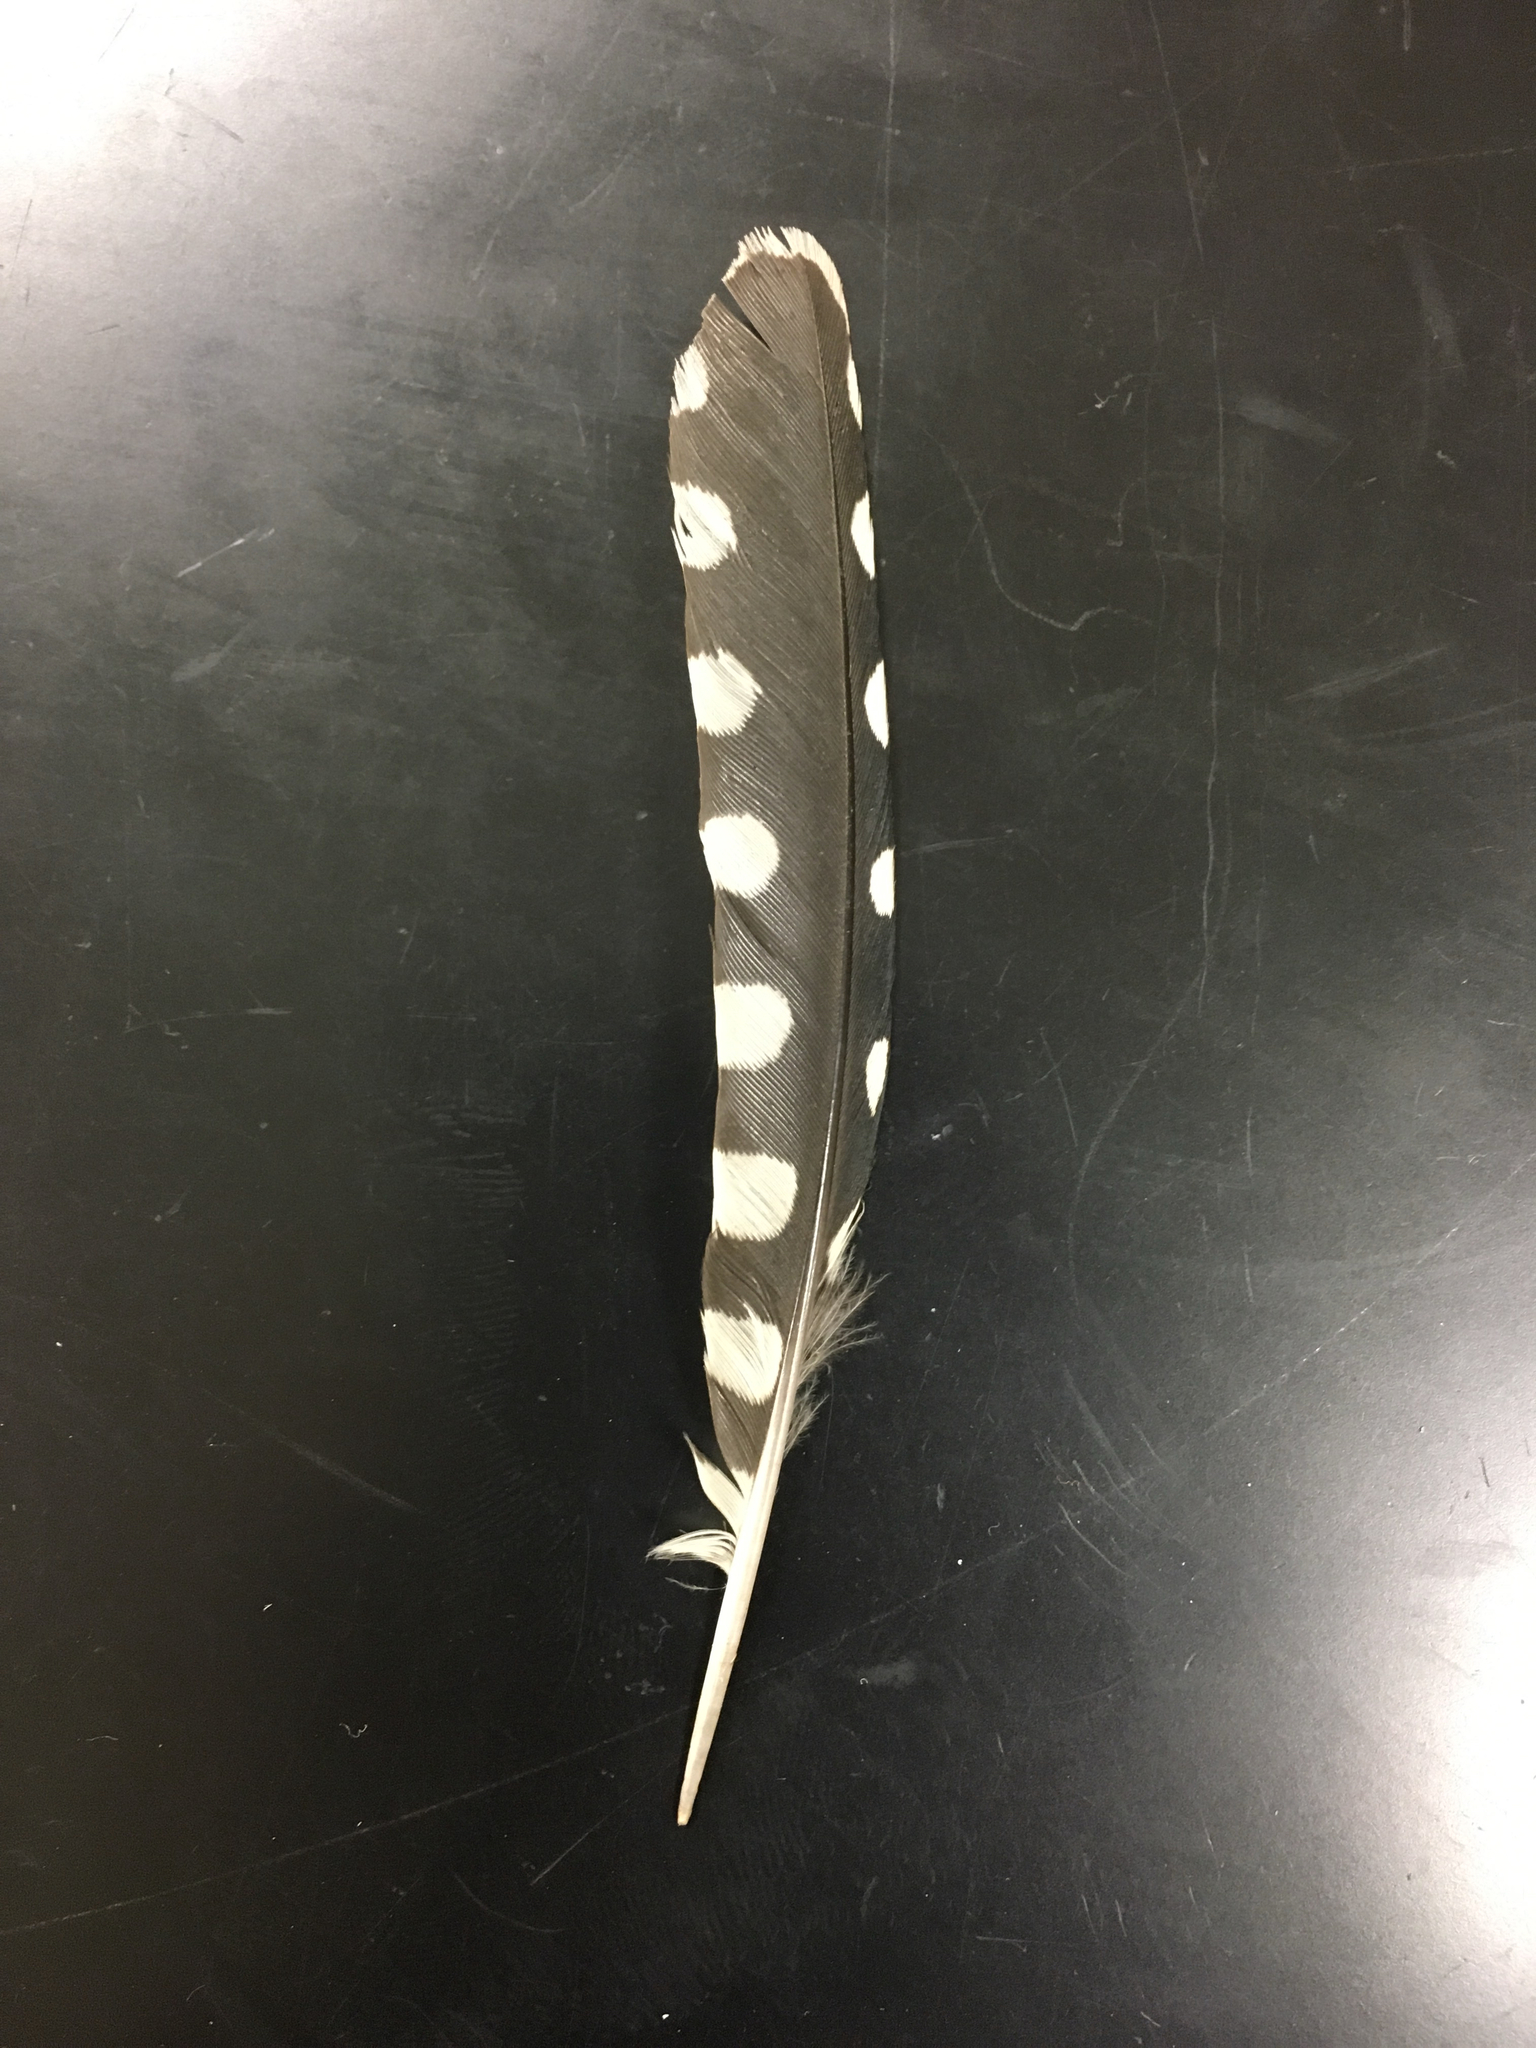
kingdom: Animalia
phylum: Chordata
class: Aves
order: Piciformes
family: Picidae
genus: Sphyrapicus
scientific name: Sphyrapicus varius
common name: Yellow-bellied sapsucker
